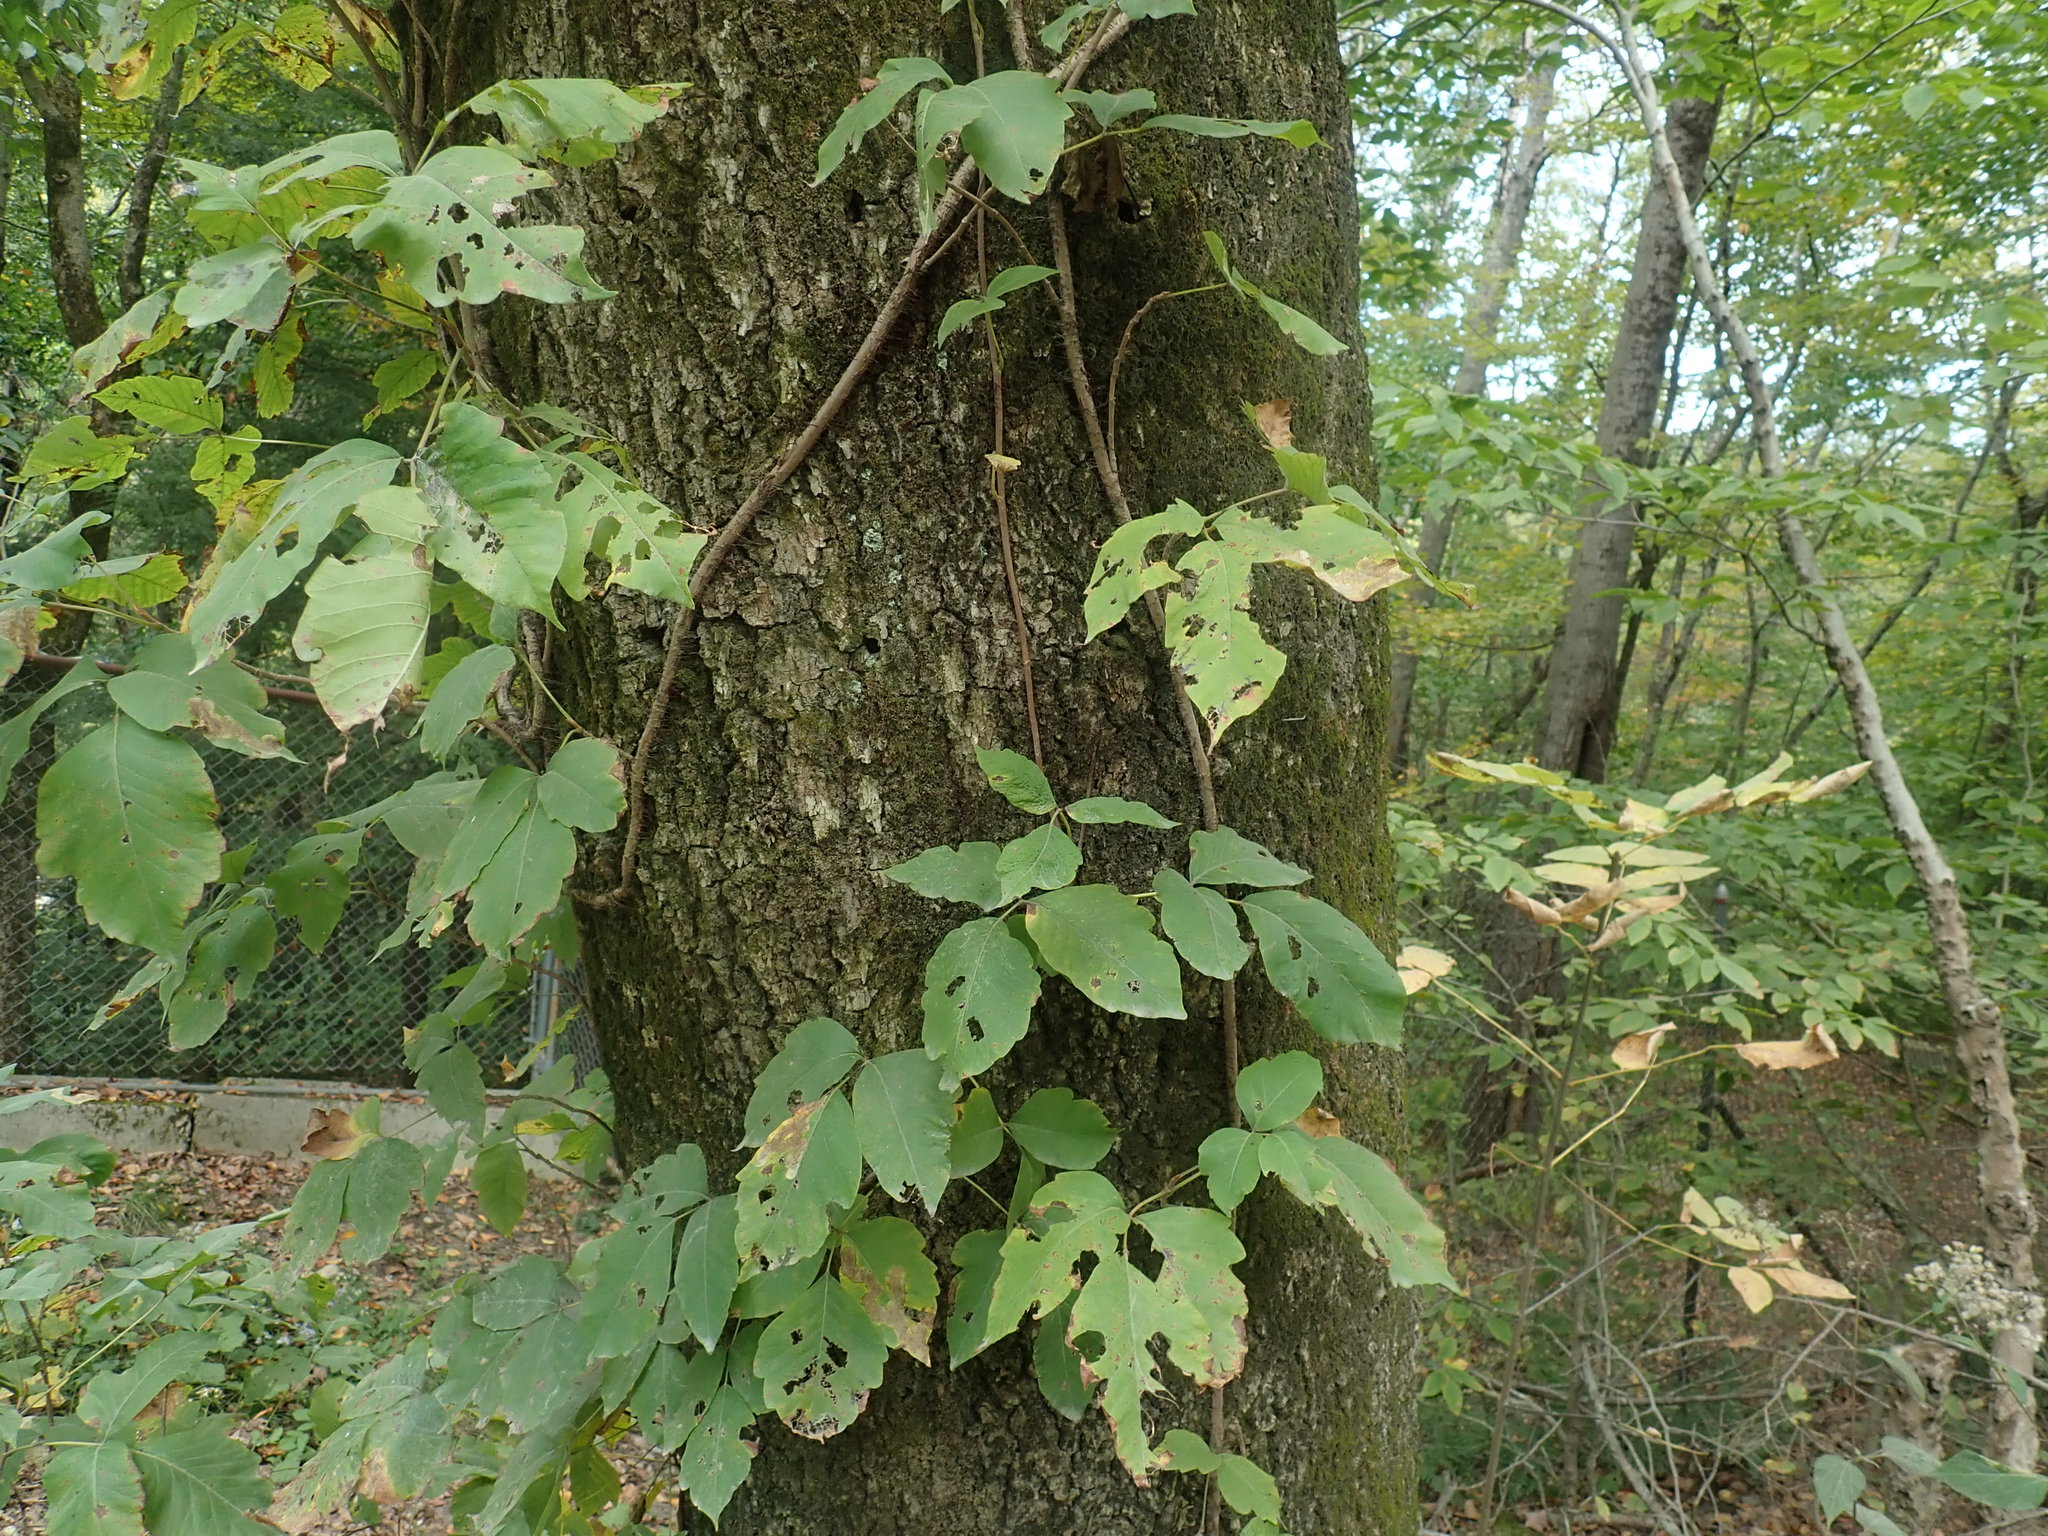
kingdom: Plantae
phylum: Tracheophyta
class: Magnoliopsida
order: Sapindales
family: Anacardiaceae
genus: Toxicodendron
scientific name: Toxicodendron radicans
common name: Poison ivy
